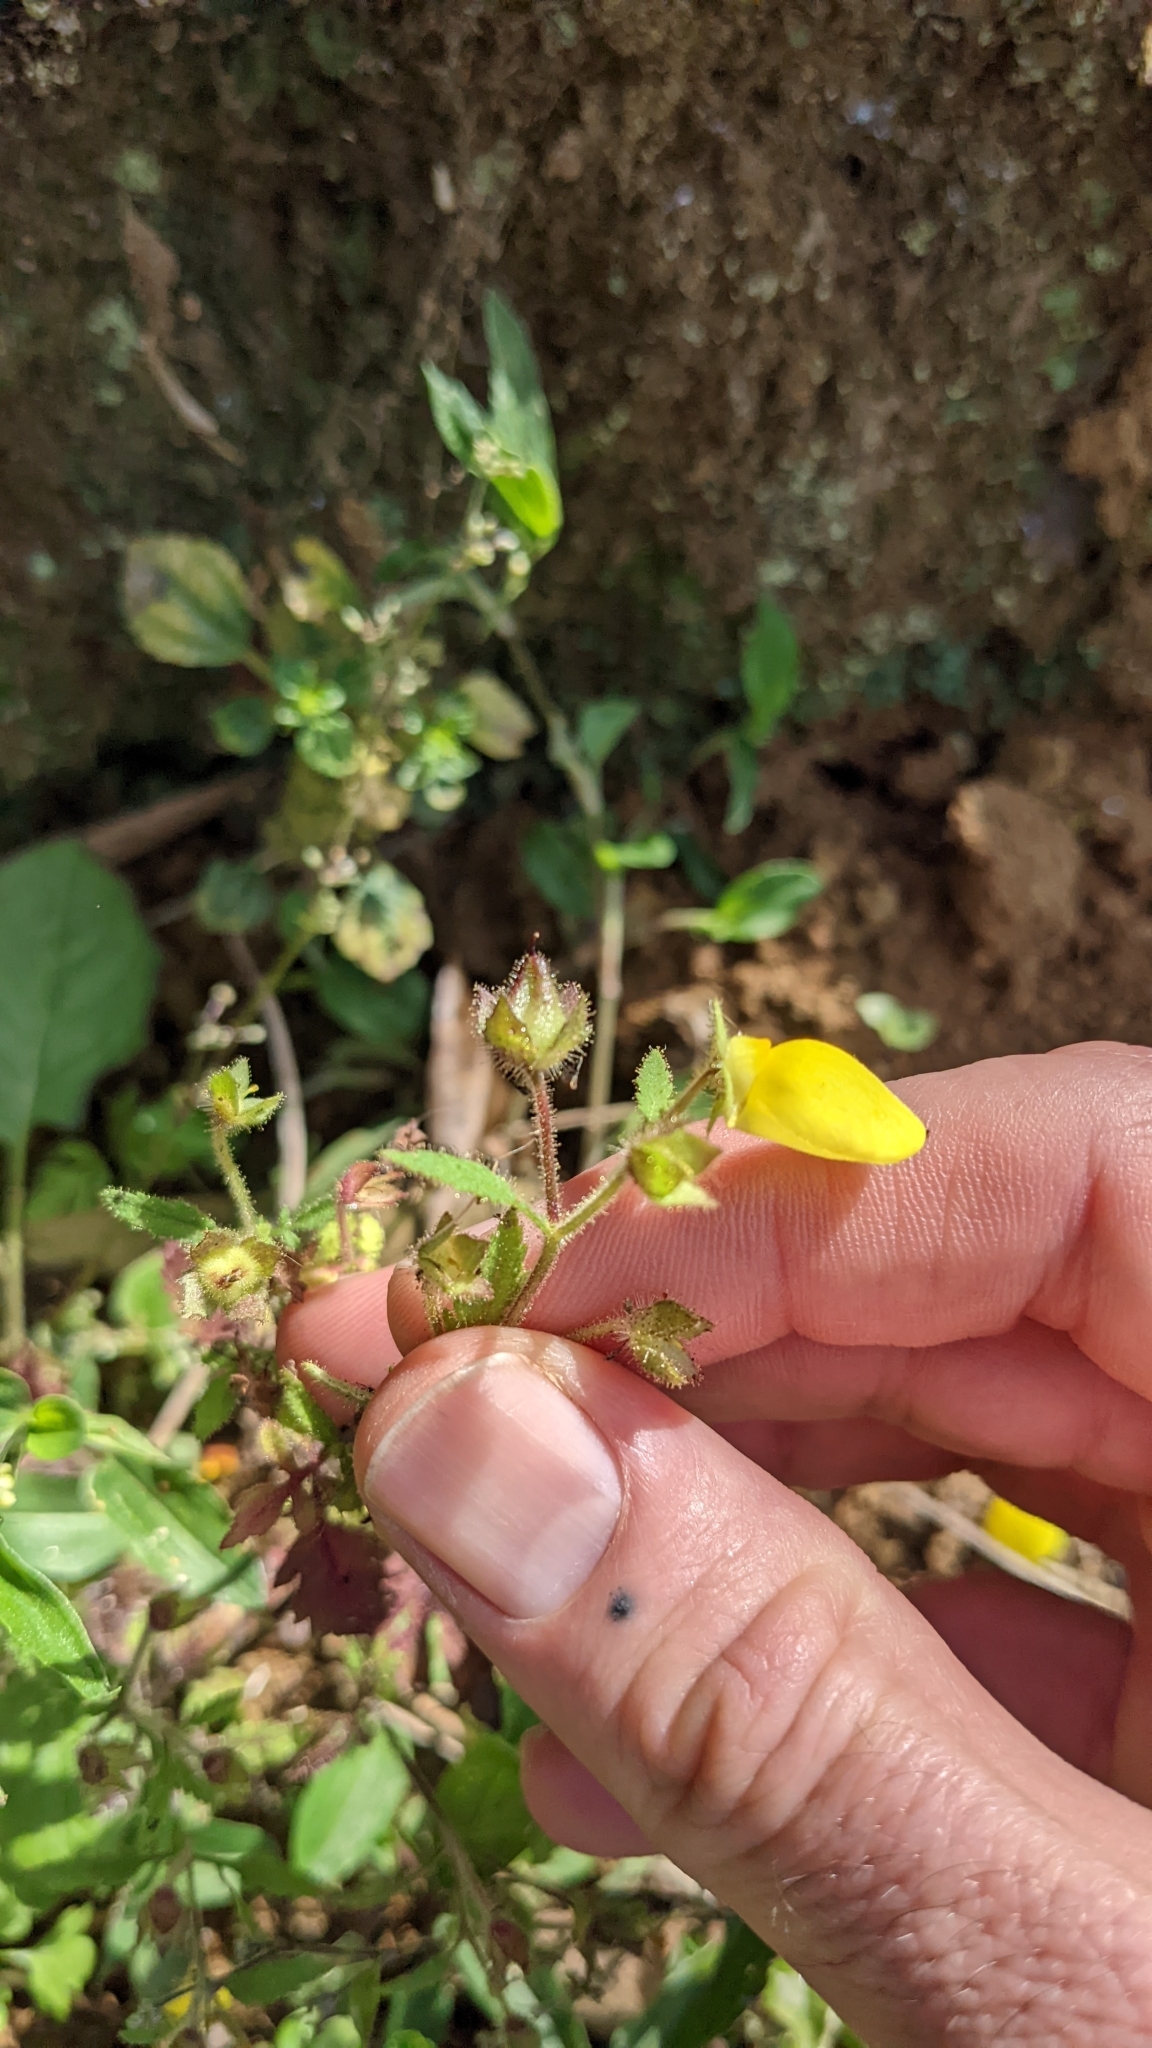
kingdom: Plantae
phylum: Tracheophyta
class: Magnoliopsida
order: Lamiales
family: Calceolariaceae
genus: Calceolaria
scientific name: Calceolaria tripartita
